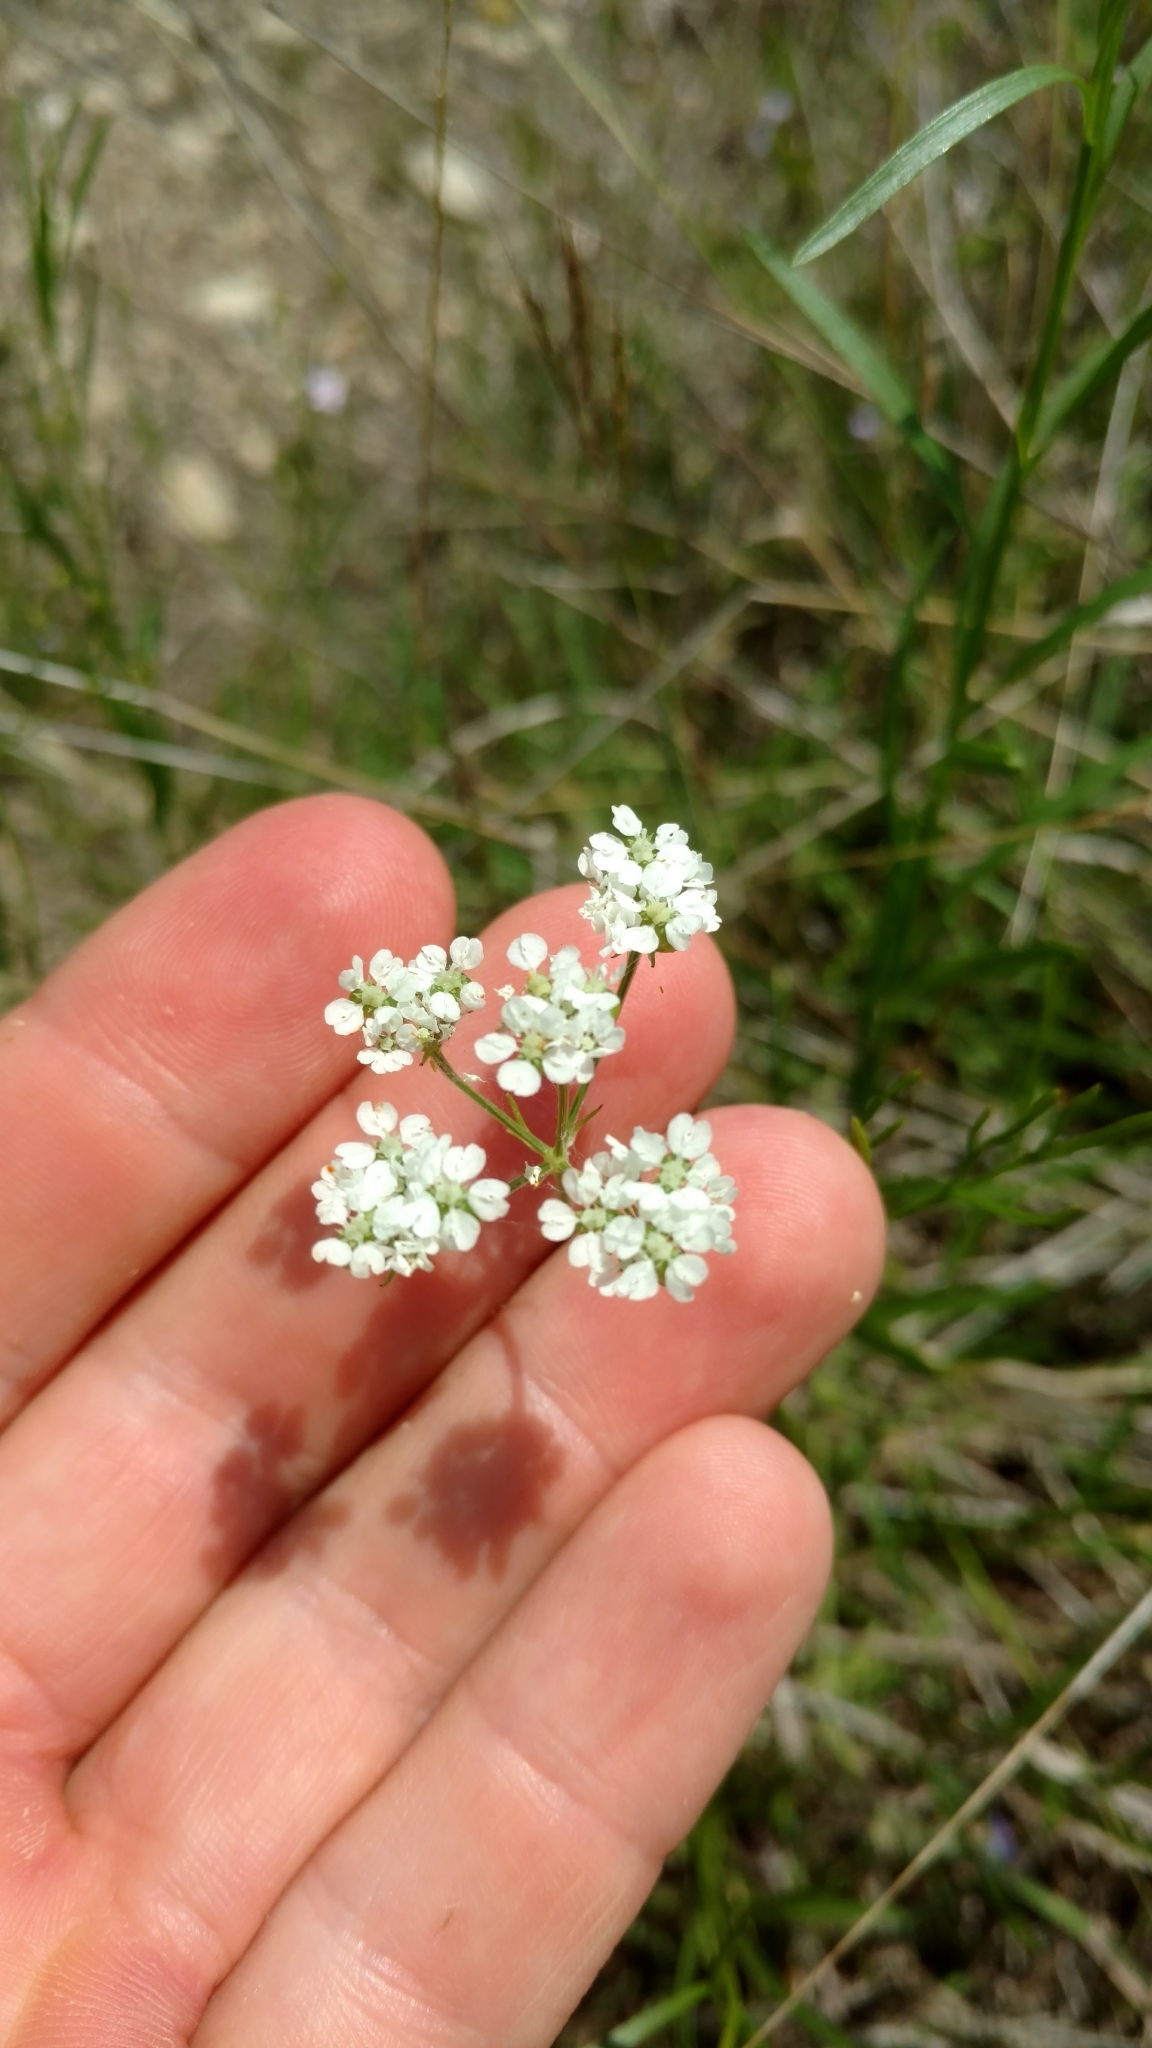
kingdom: Plantae
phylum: Tracheophyta
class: Magnoliopsida
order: Apiales
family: Apiaceae
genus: Atrema
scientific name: Atrema americanum
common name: Prairie-bishop
